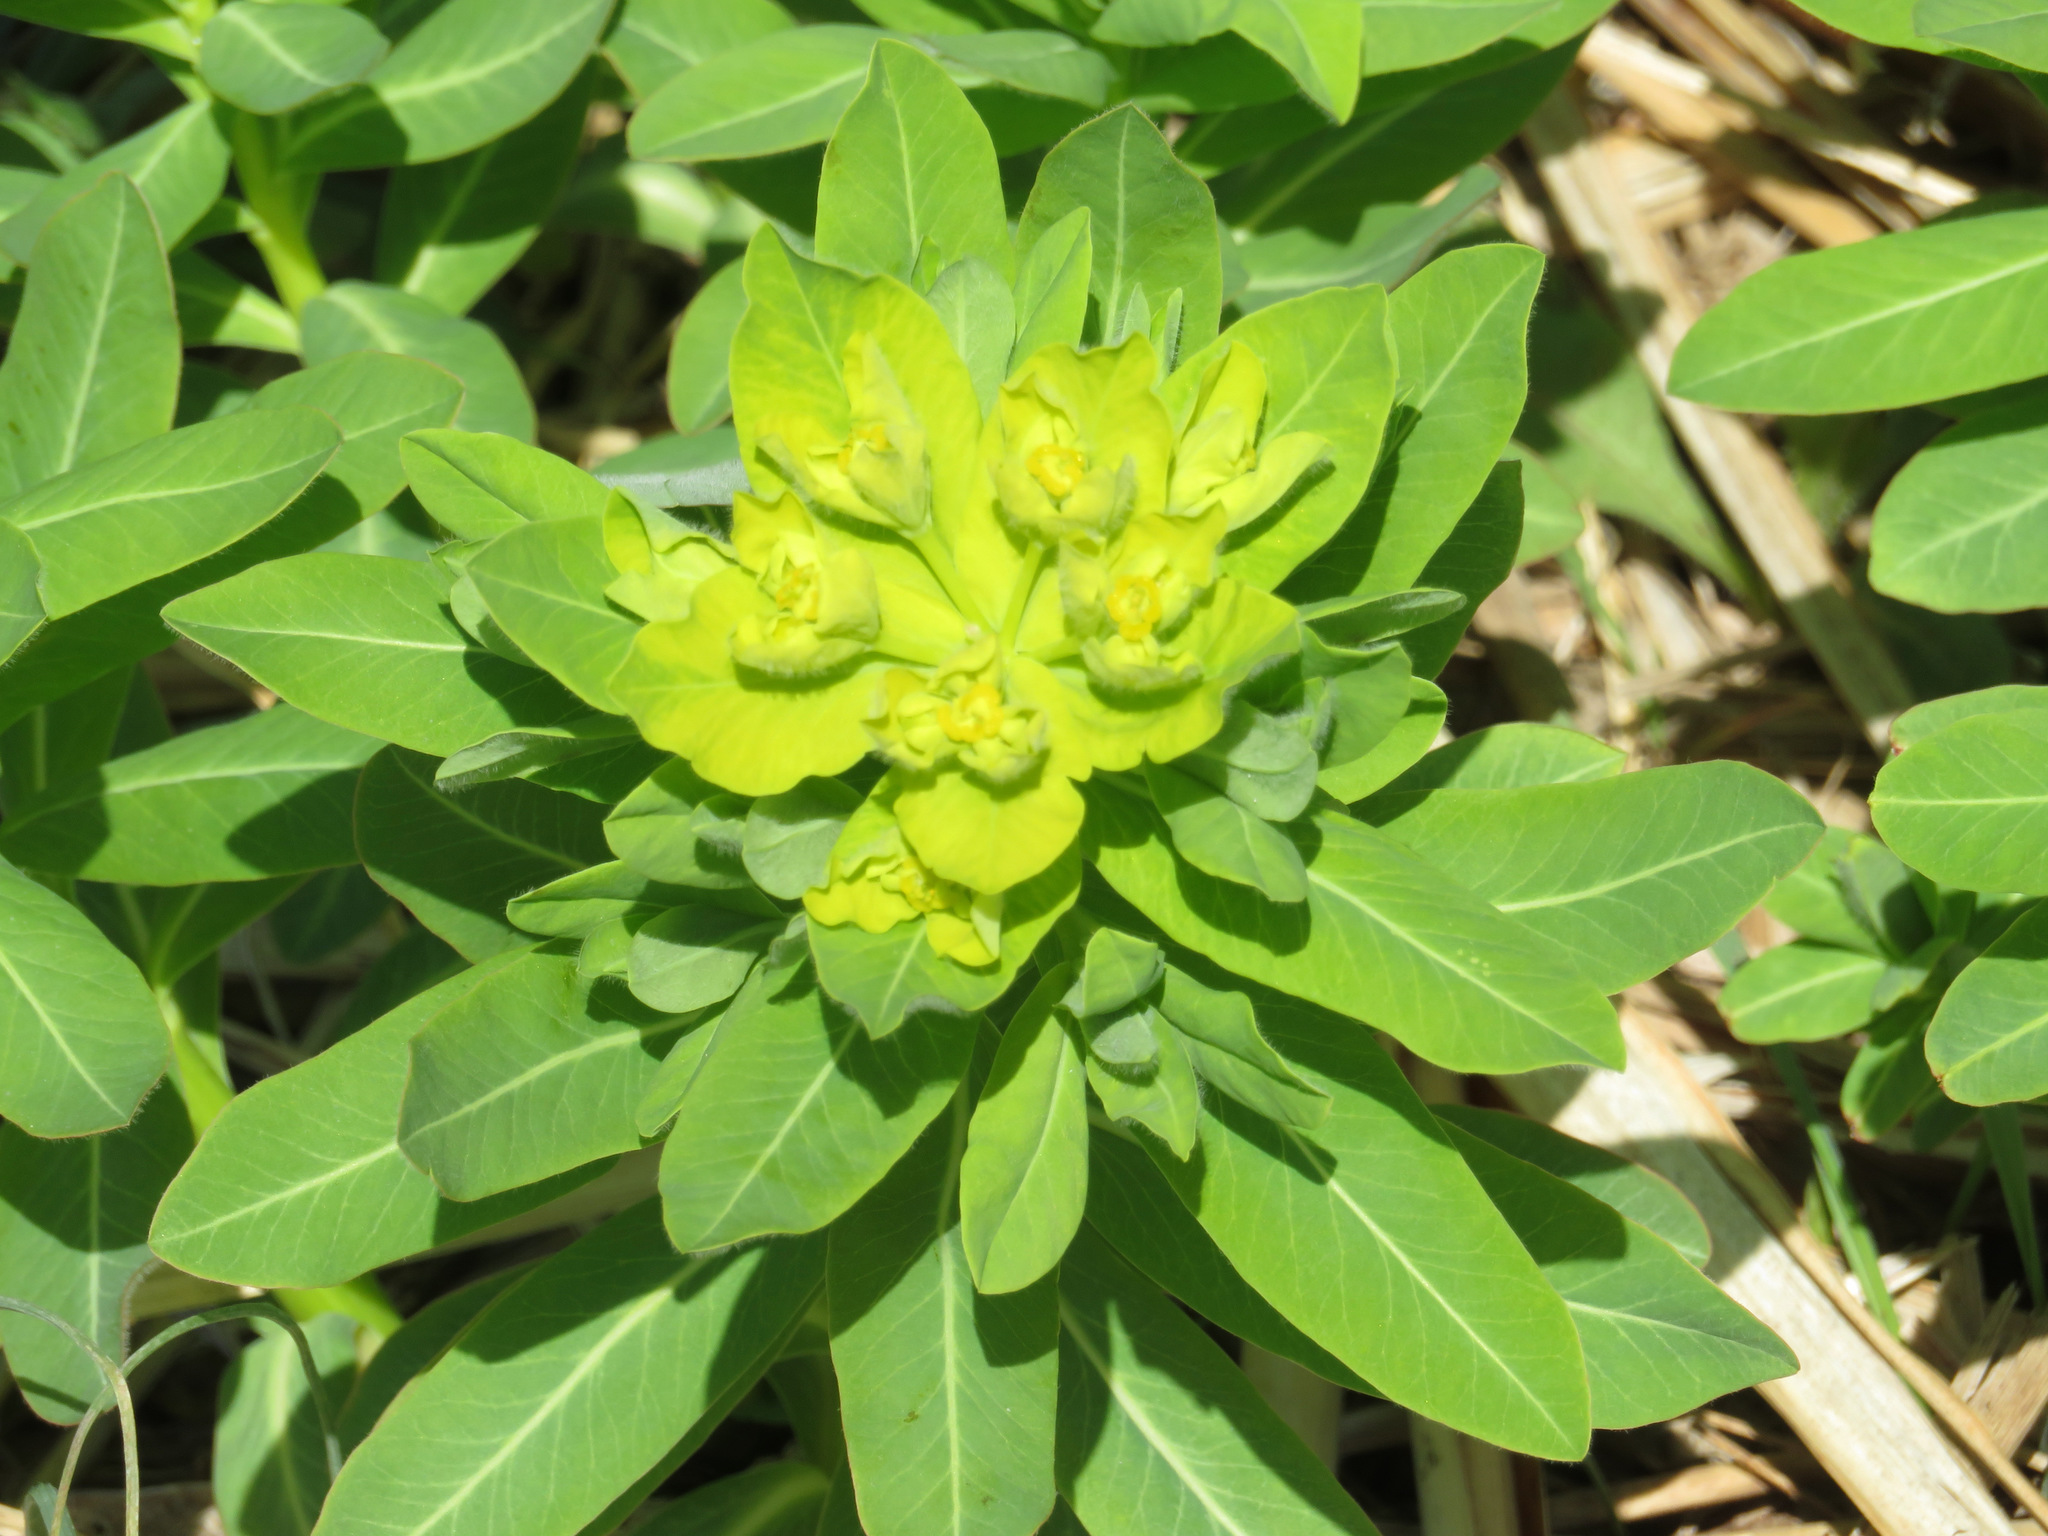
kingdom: Plantae
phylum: Tracheophyta
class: Magnoliopsida
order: Malpighiales
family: Euphorbiaceae
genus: Euphorbia
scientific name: Euphorbia adenochlora
